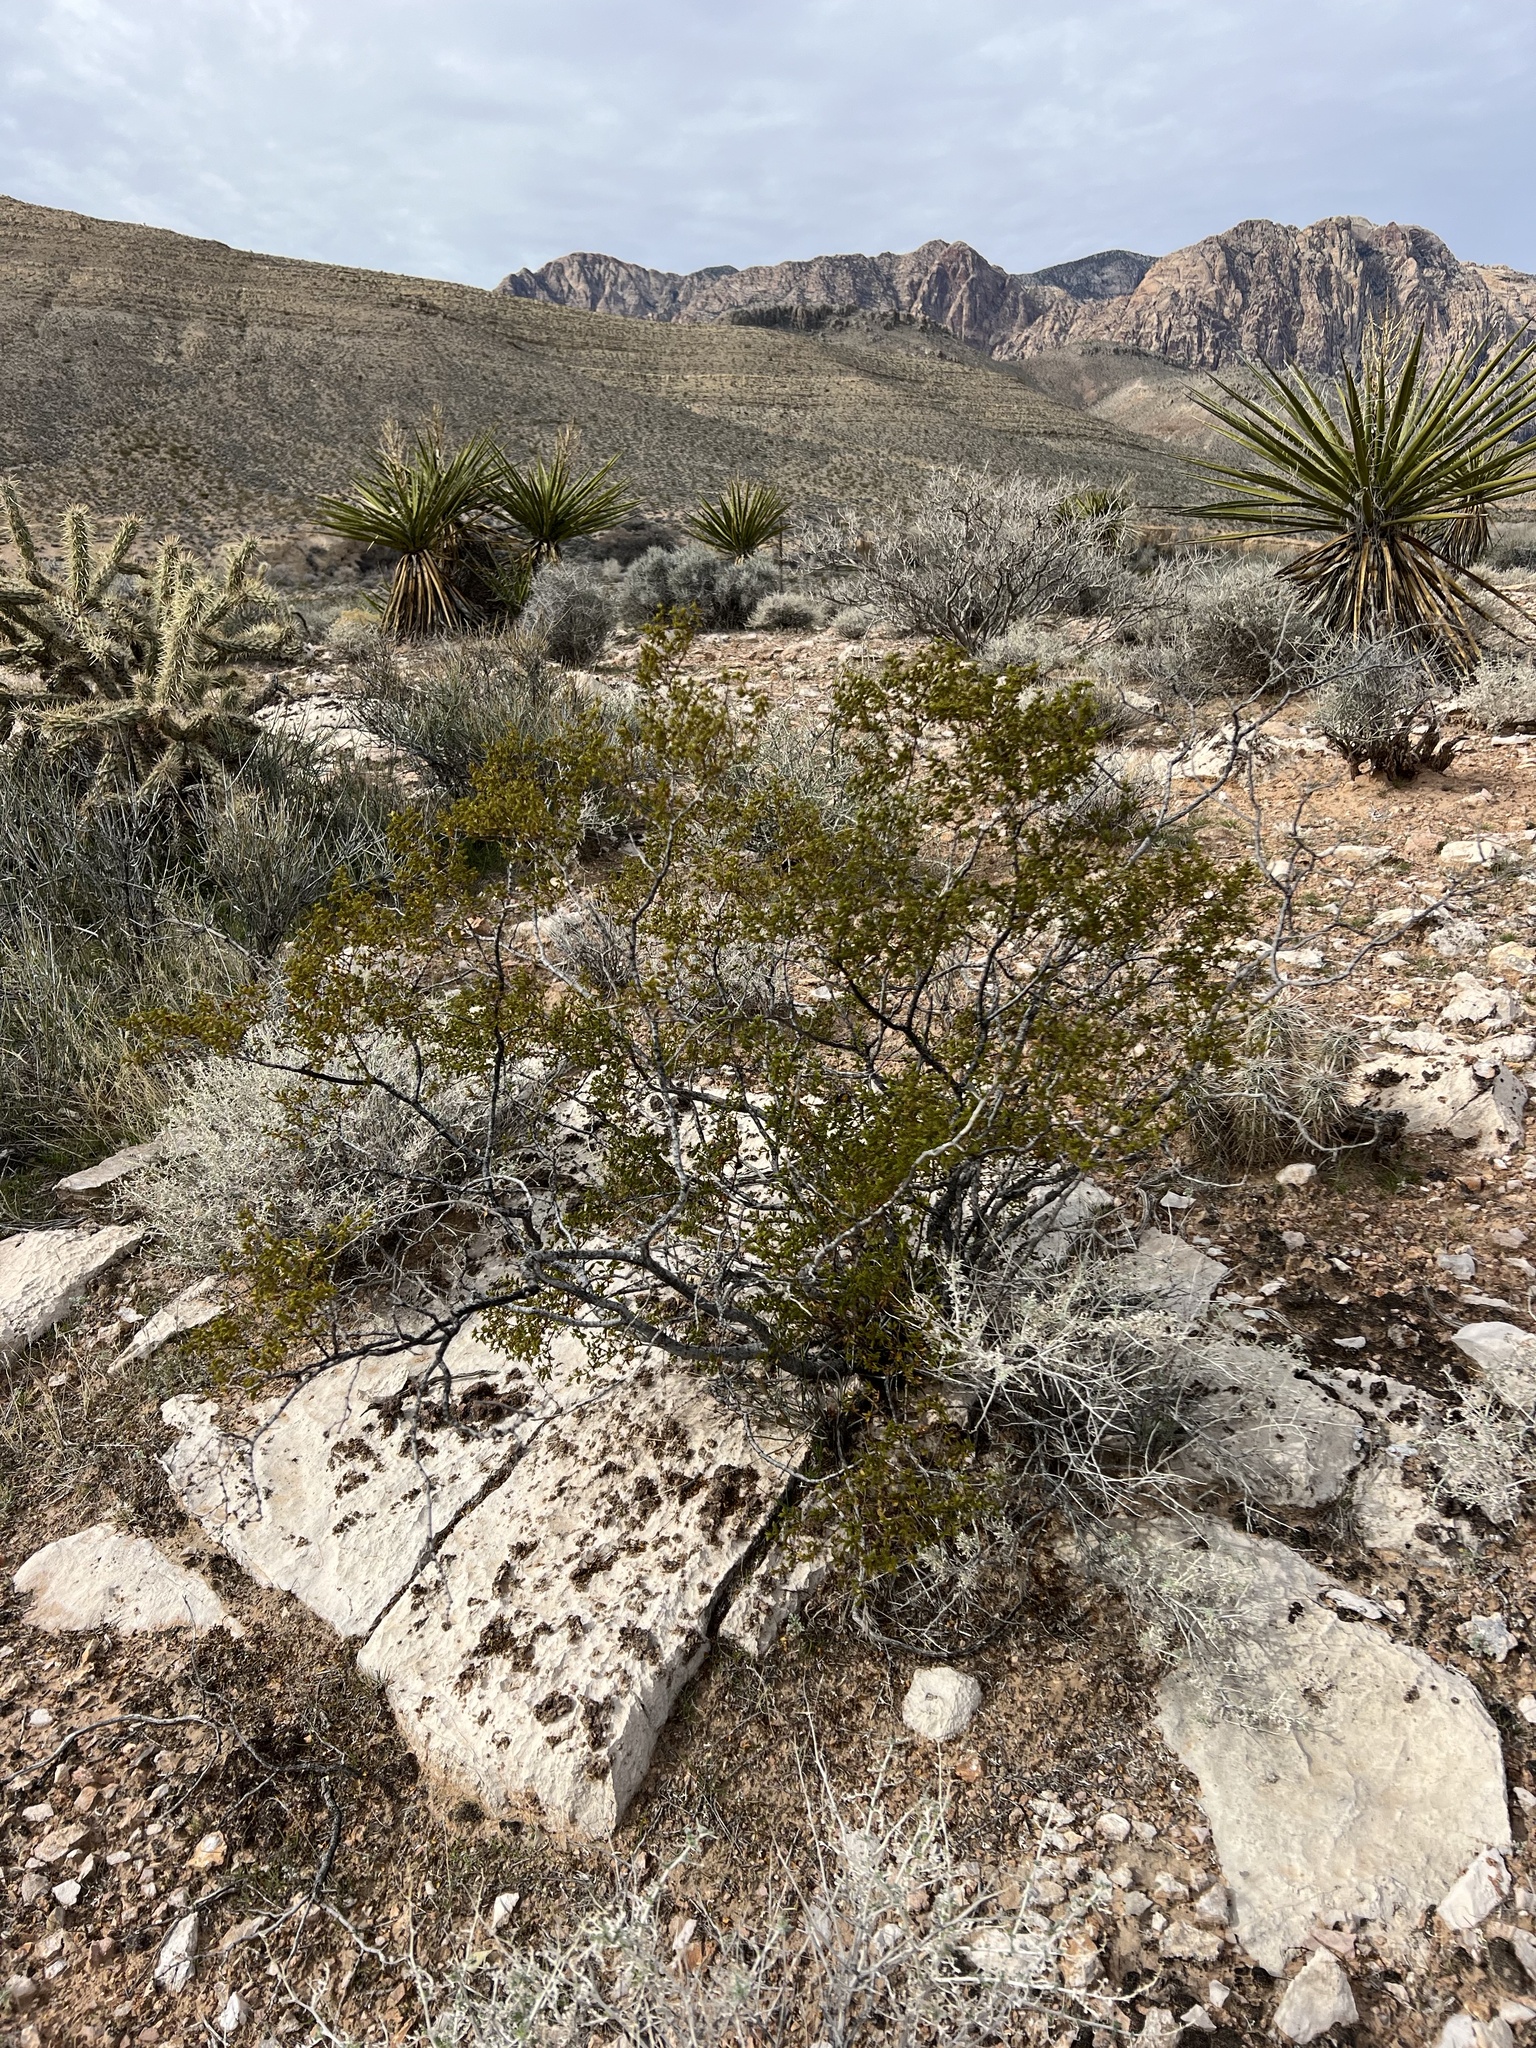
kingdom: Plantae
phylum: Tracheophyta
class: Magnoliopsida
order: Zygophyllales
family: Zygophyllaceae
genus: Larrea
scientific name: Larrea tridentata
